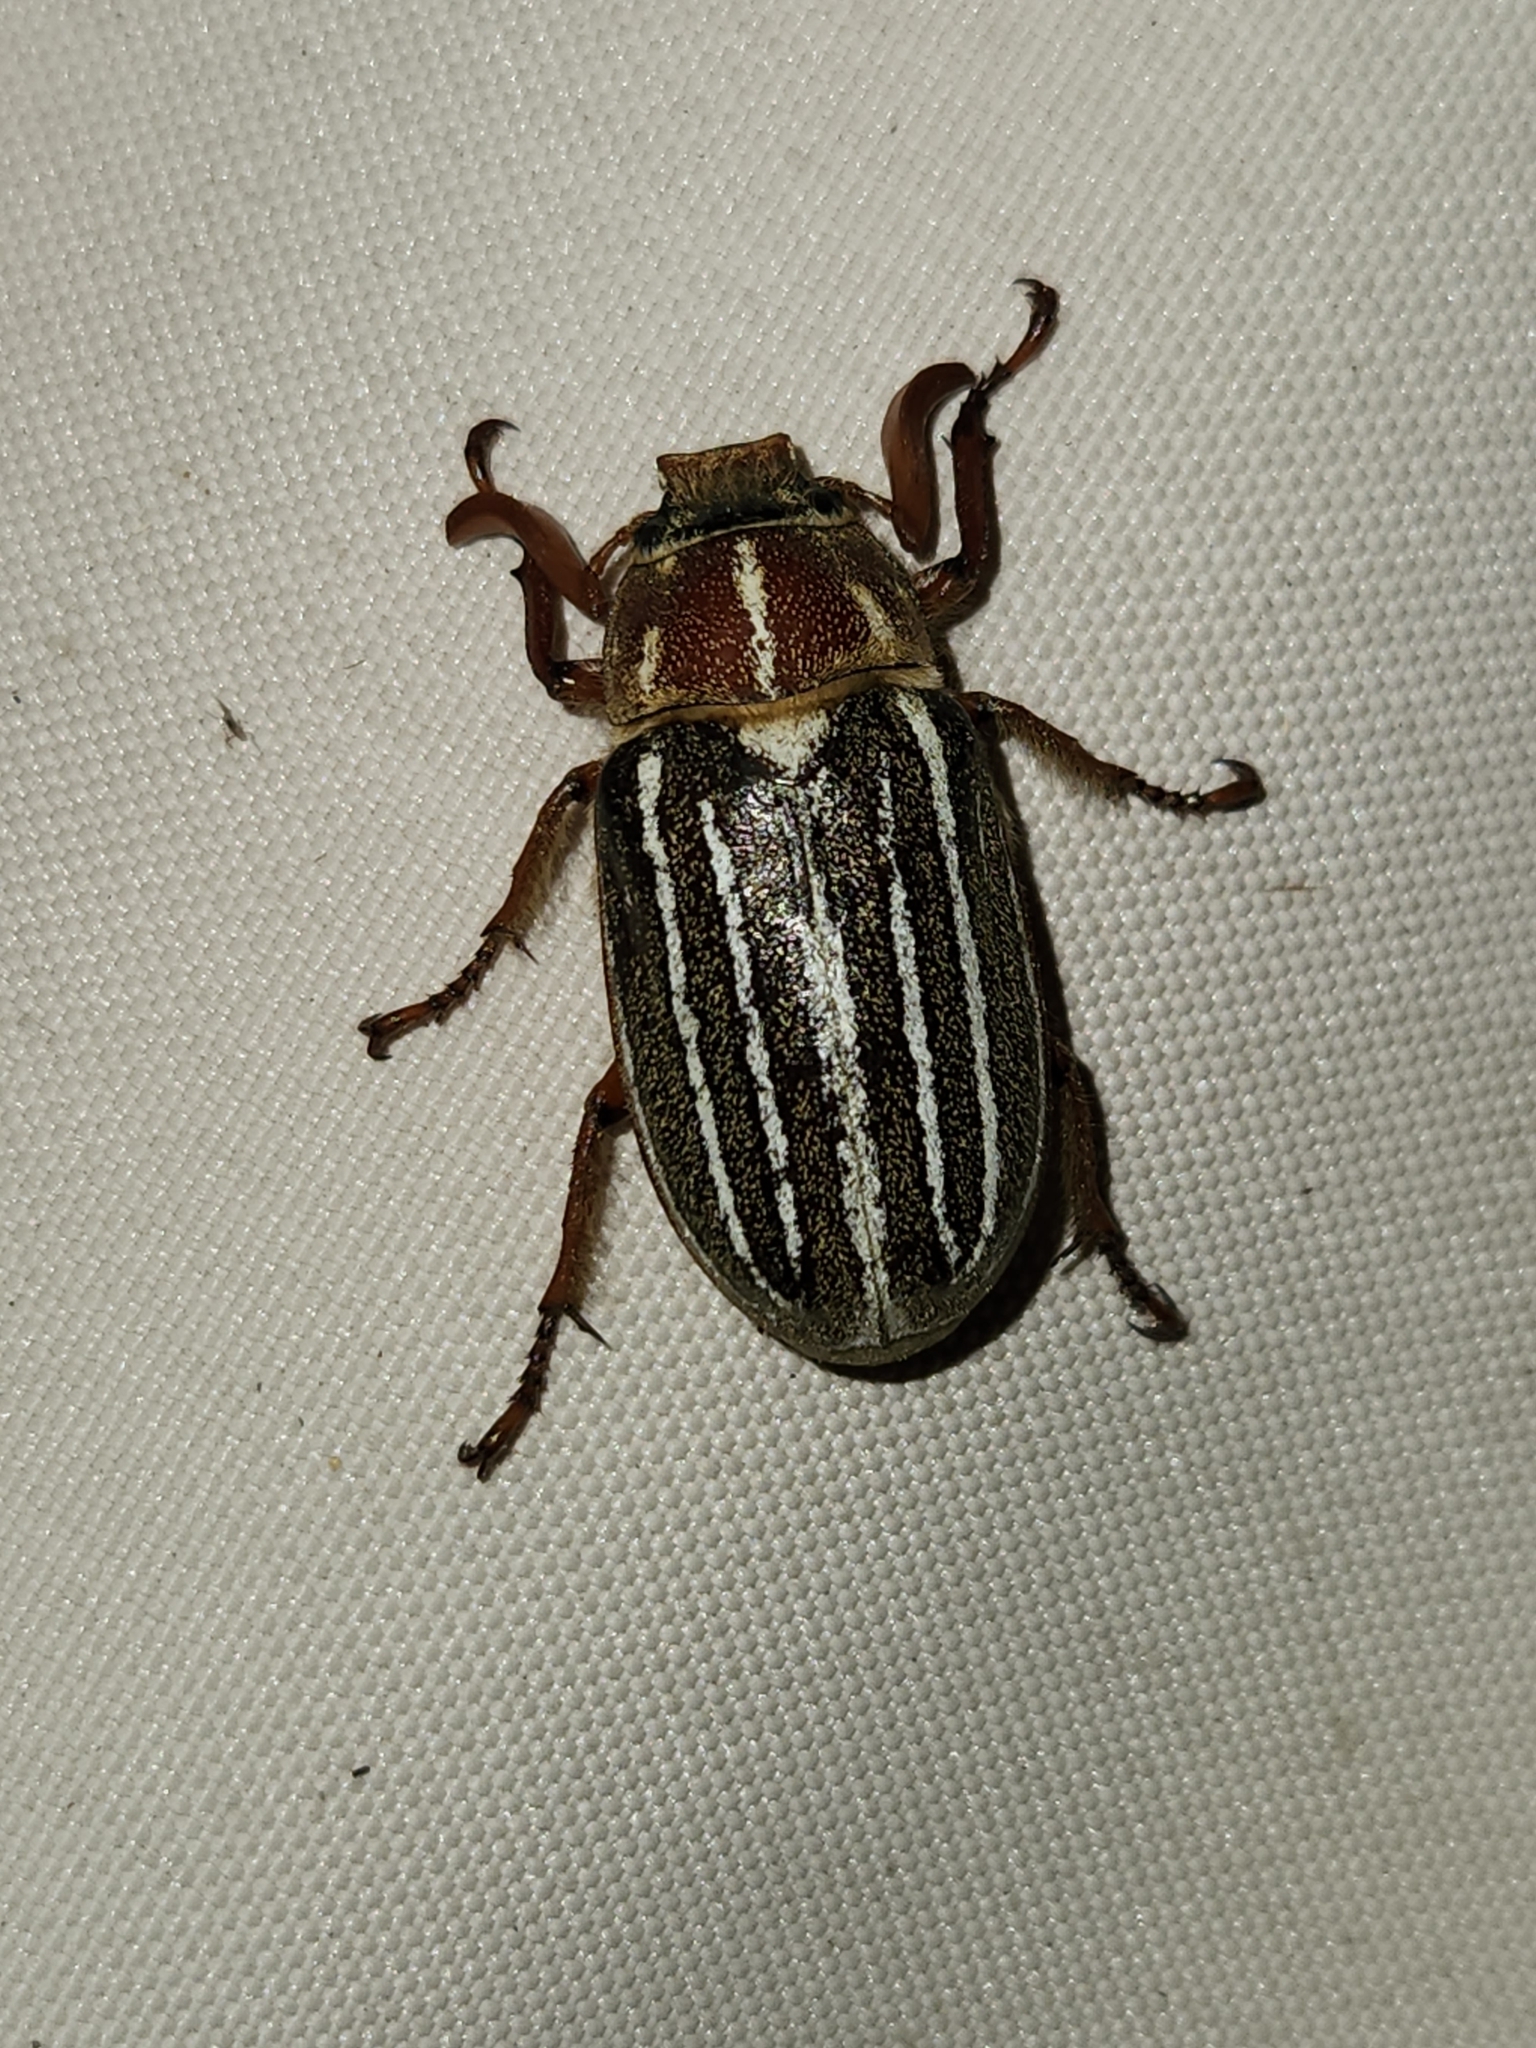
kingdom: Animalia
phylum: Arthropoda
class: Insecta
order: Coleoptera
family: Scarabaeidae
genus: Polyphylla
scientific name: Polyphylla decemlineata
